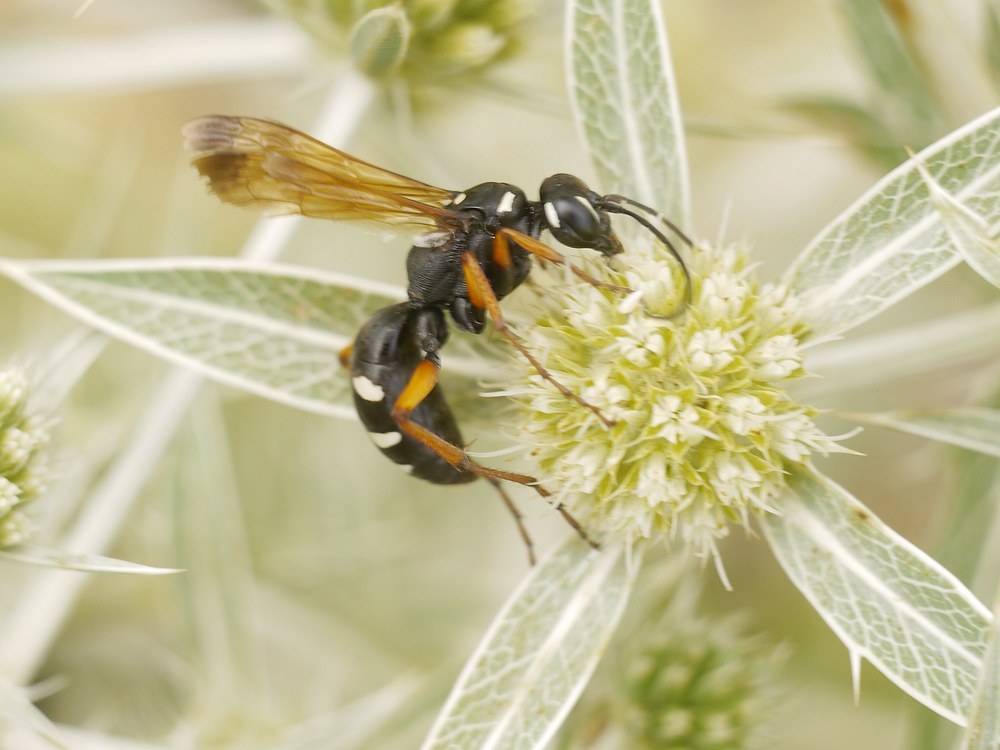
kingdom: Animalia
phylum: Arthropoda
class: Insecta
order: Hymenoptera
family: Pompilidae
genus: Cryptocheilus
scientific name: Cryptocheilus variabilis
